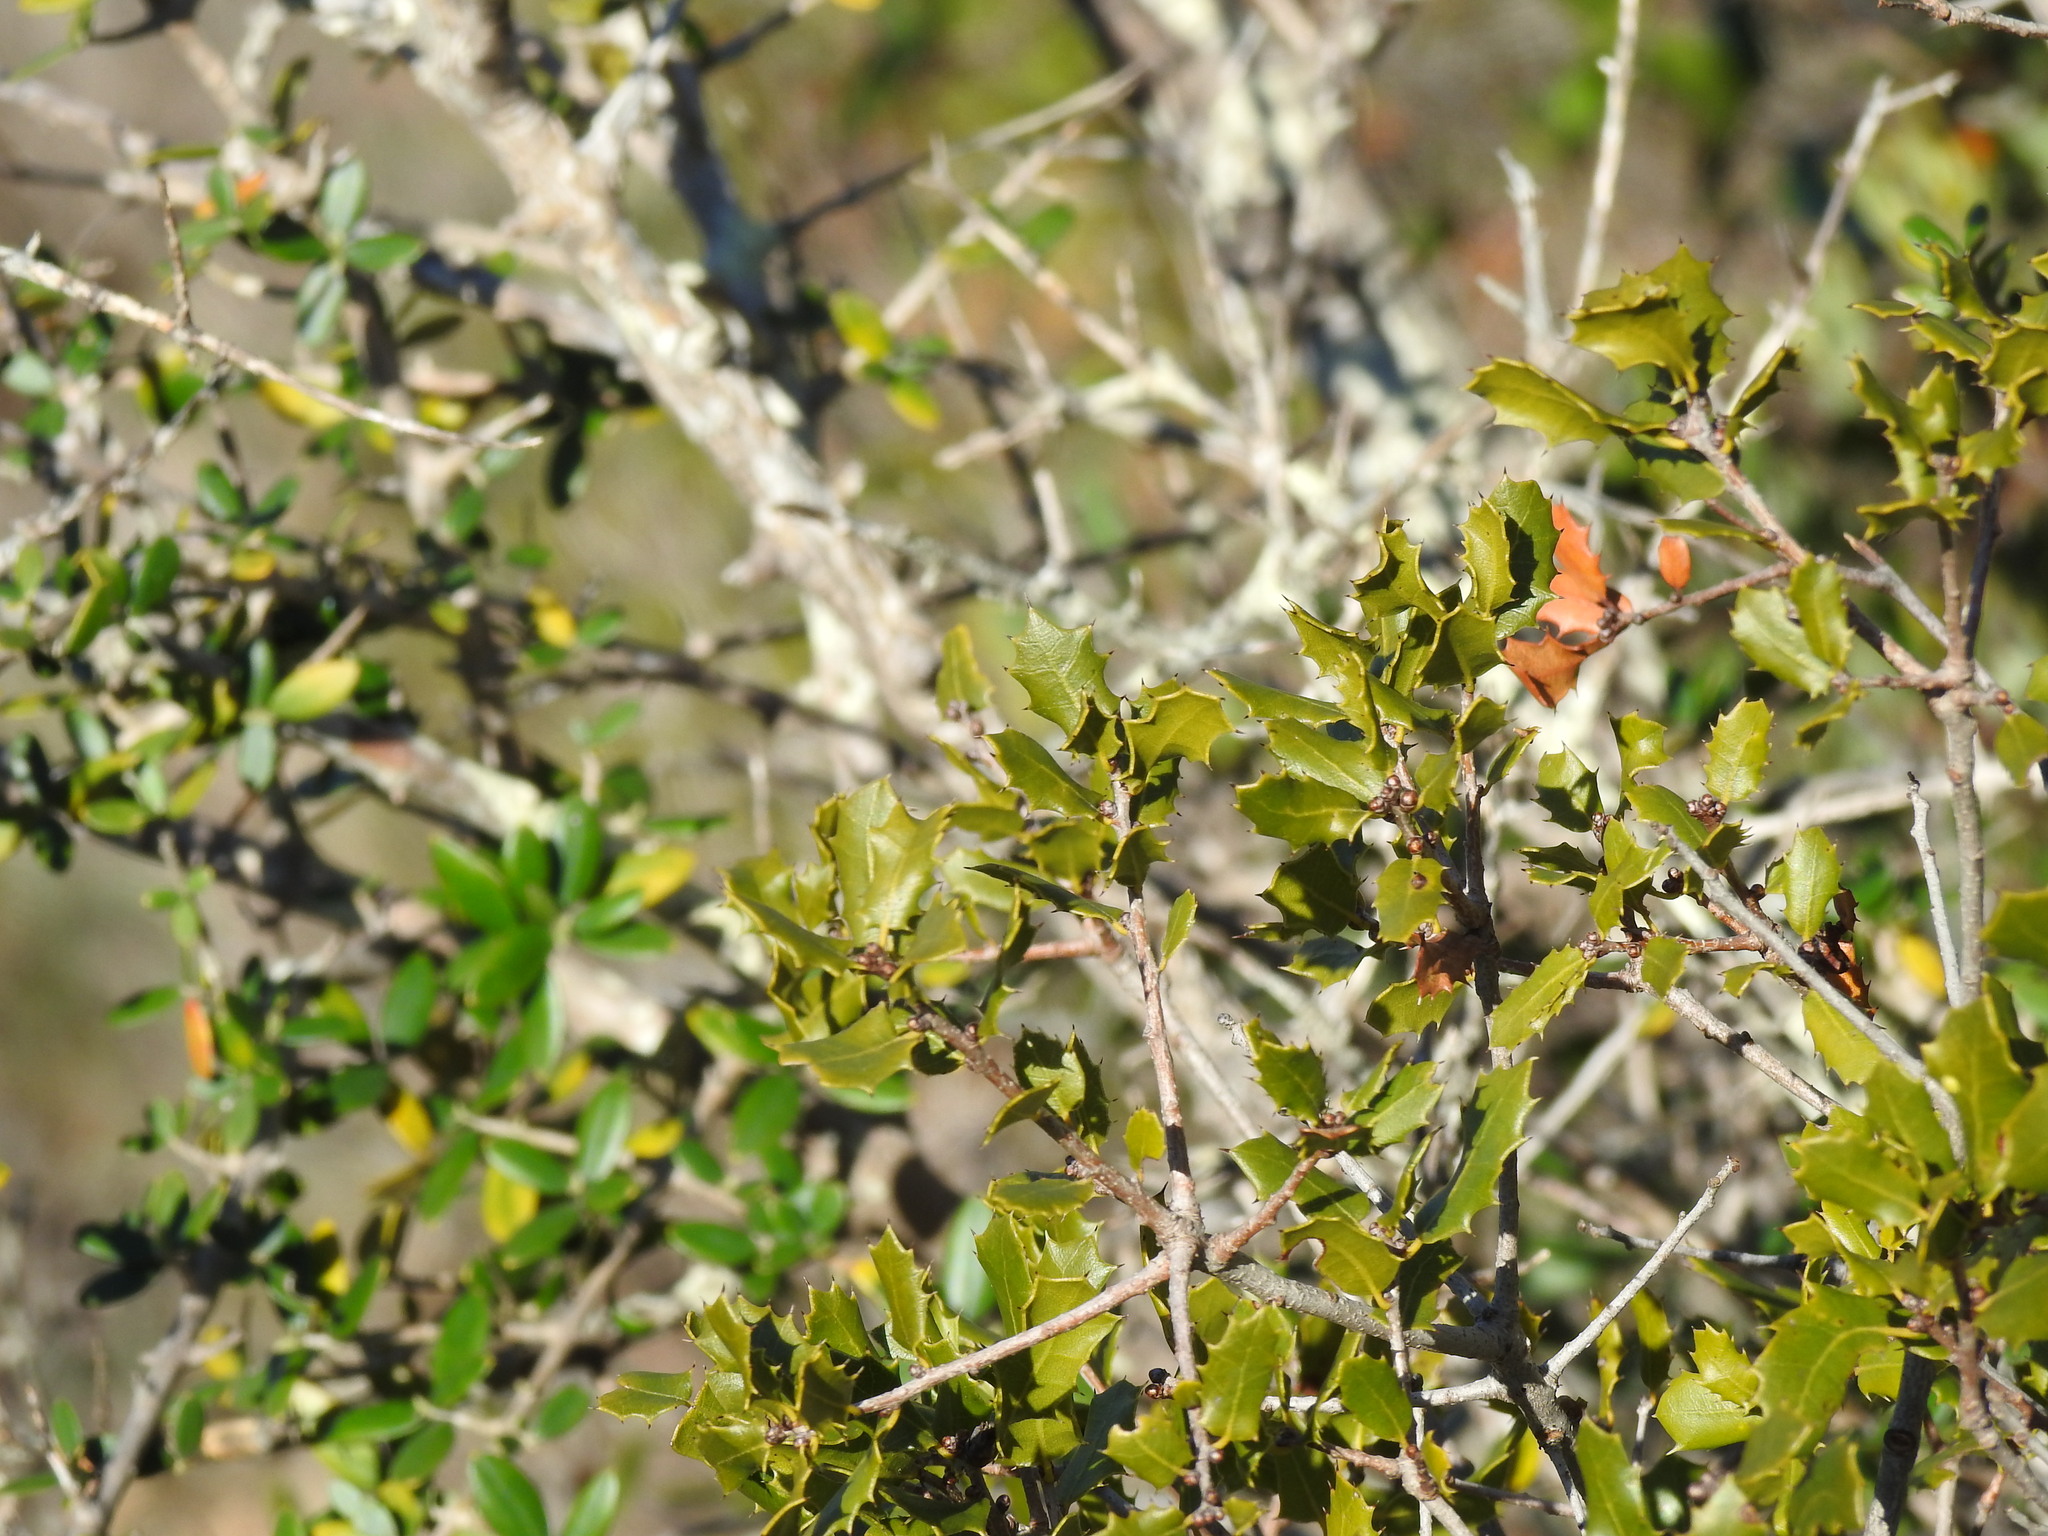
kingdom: Plantae
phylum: Tracheophyta
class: Magnoliopsida
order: Fagales
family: Fagaceae
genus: Quercus
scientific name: Quercus coccifera
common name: Kermes oak
